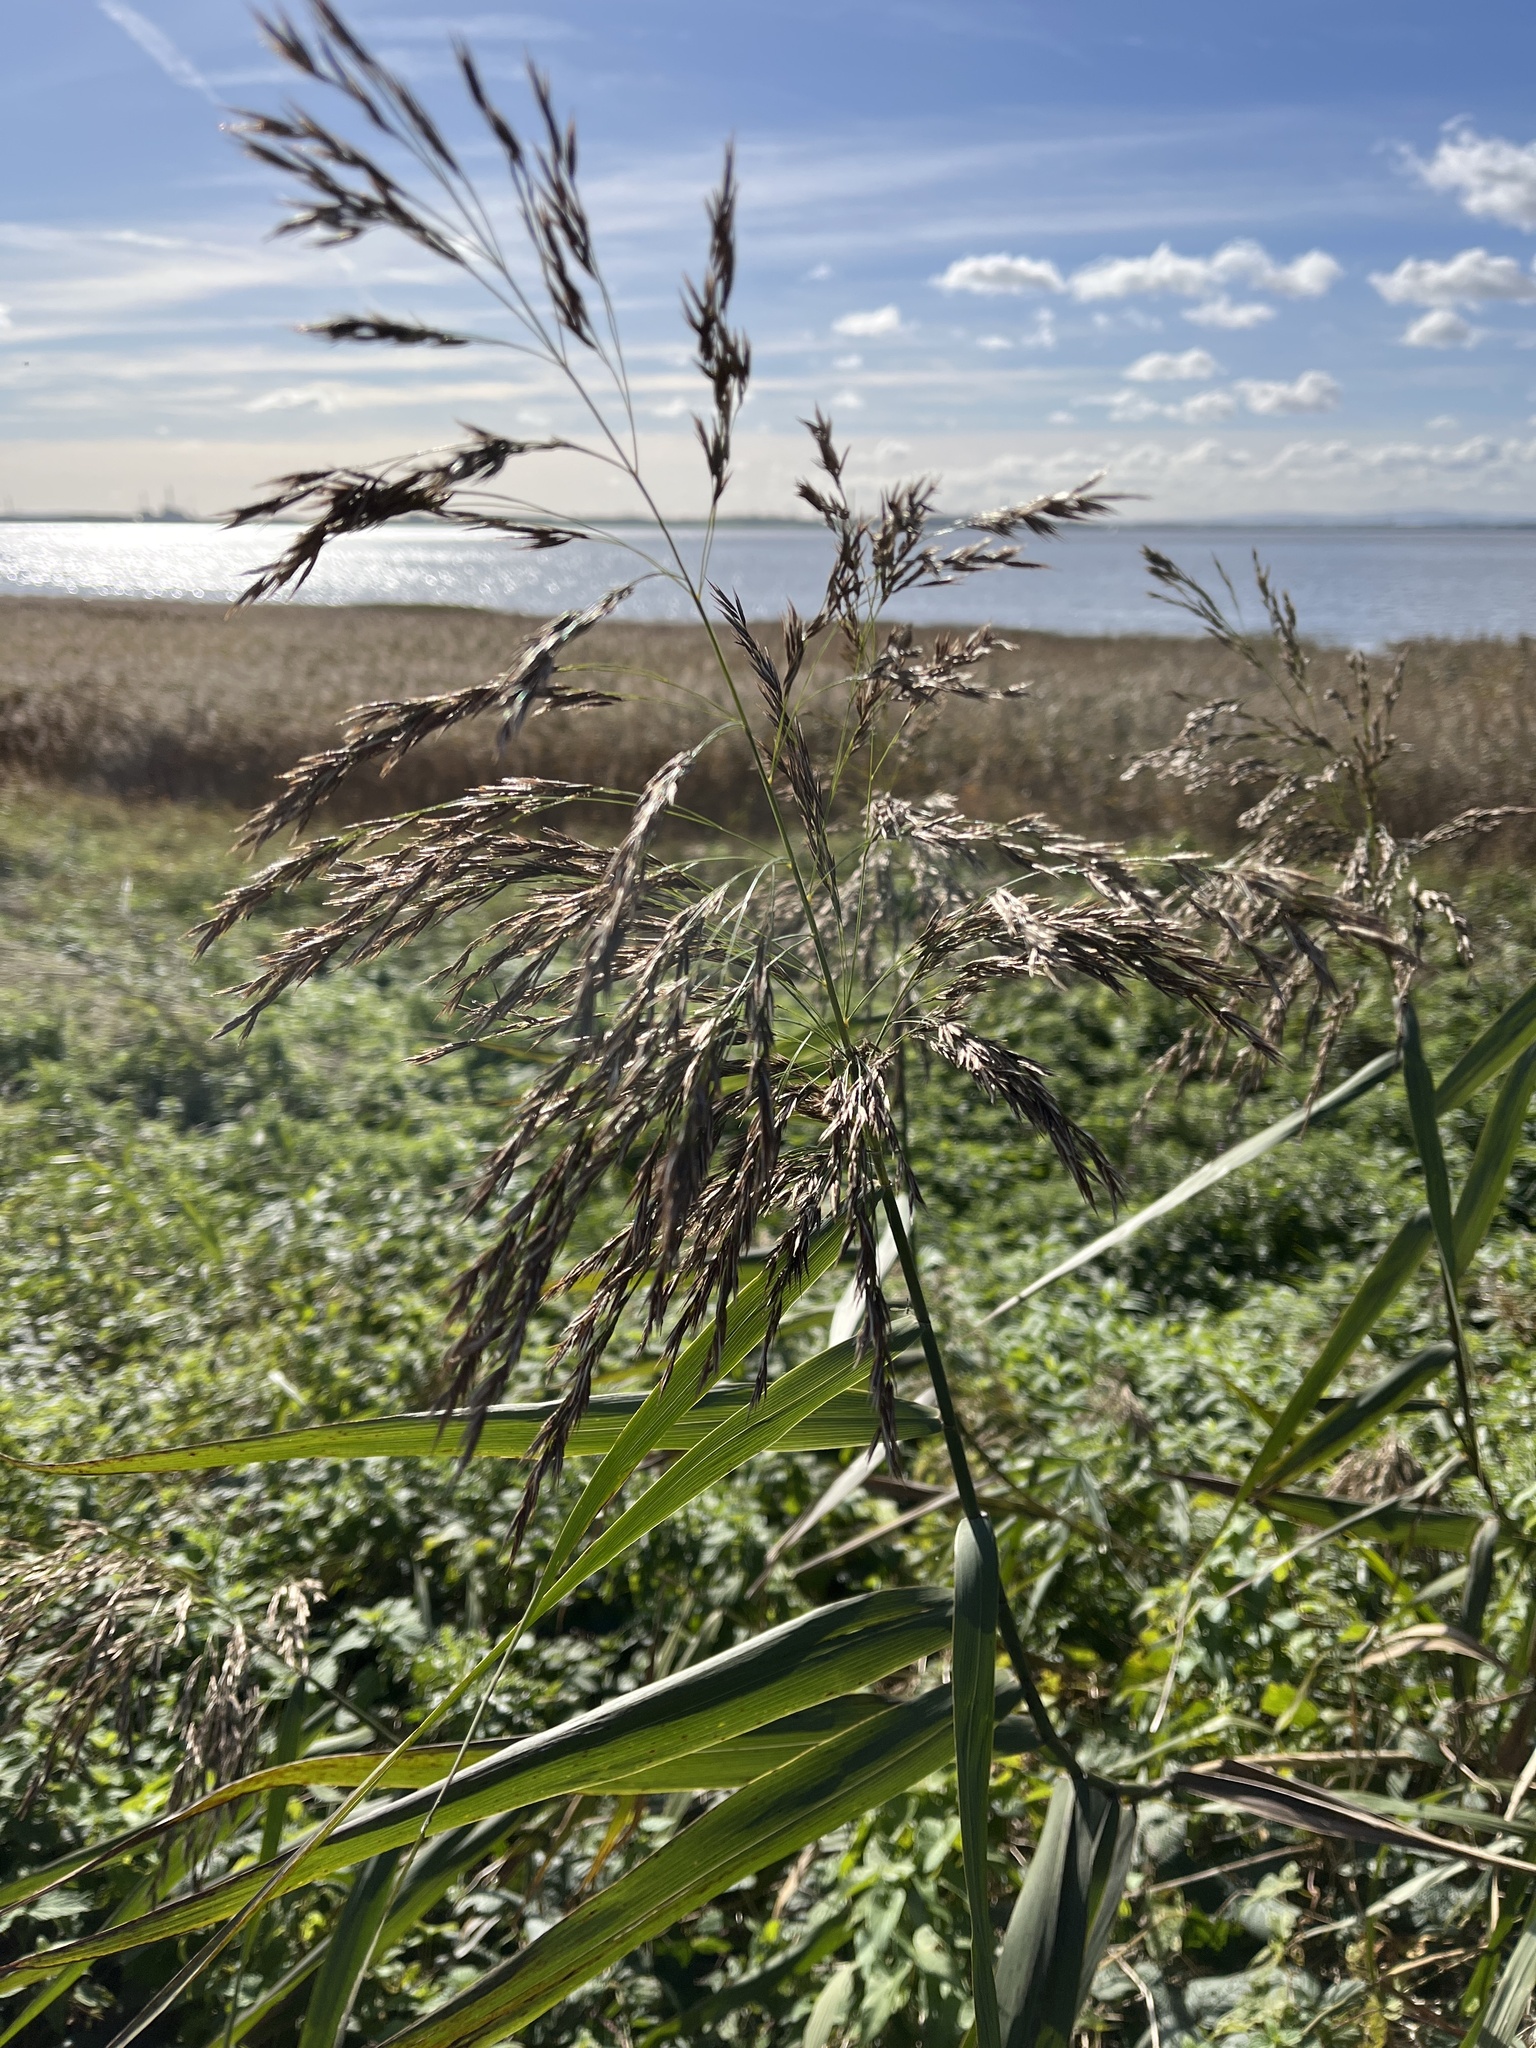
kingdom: Plantae
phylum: Tracheophyta
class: Liliopsida
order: Poales
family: Poaceae
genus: Phragmites
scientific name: Phragmites australis
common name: Common reed
